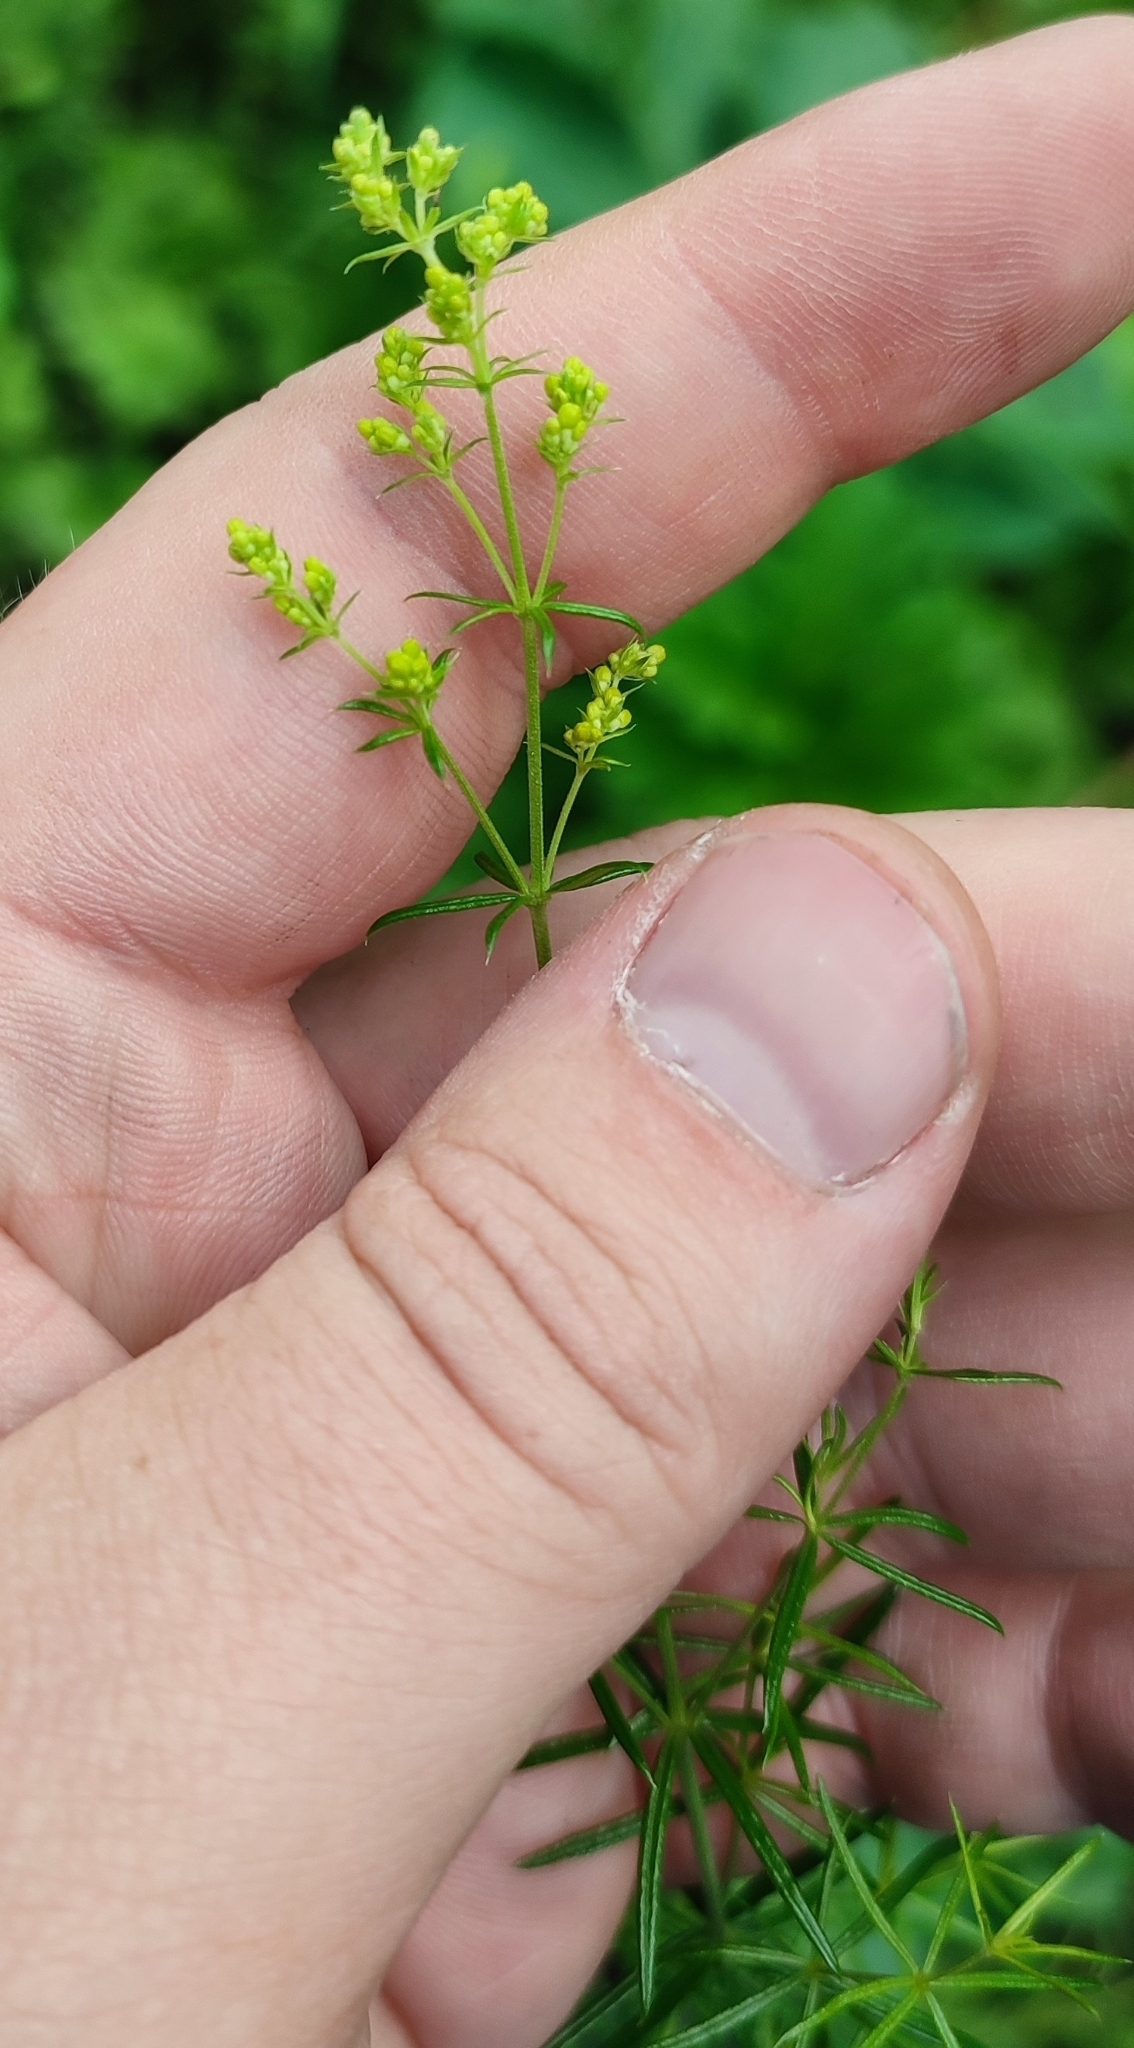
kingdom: Plantae
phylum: Tracheophyta
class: Magnoliopsida
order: Gentianales
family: Rubiaceae
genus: Galium
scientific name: Galium verum
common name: Lady's bedstraw
